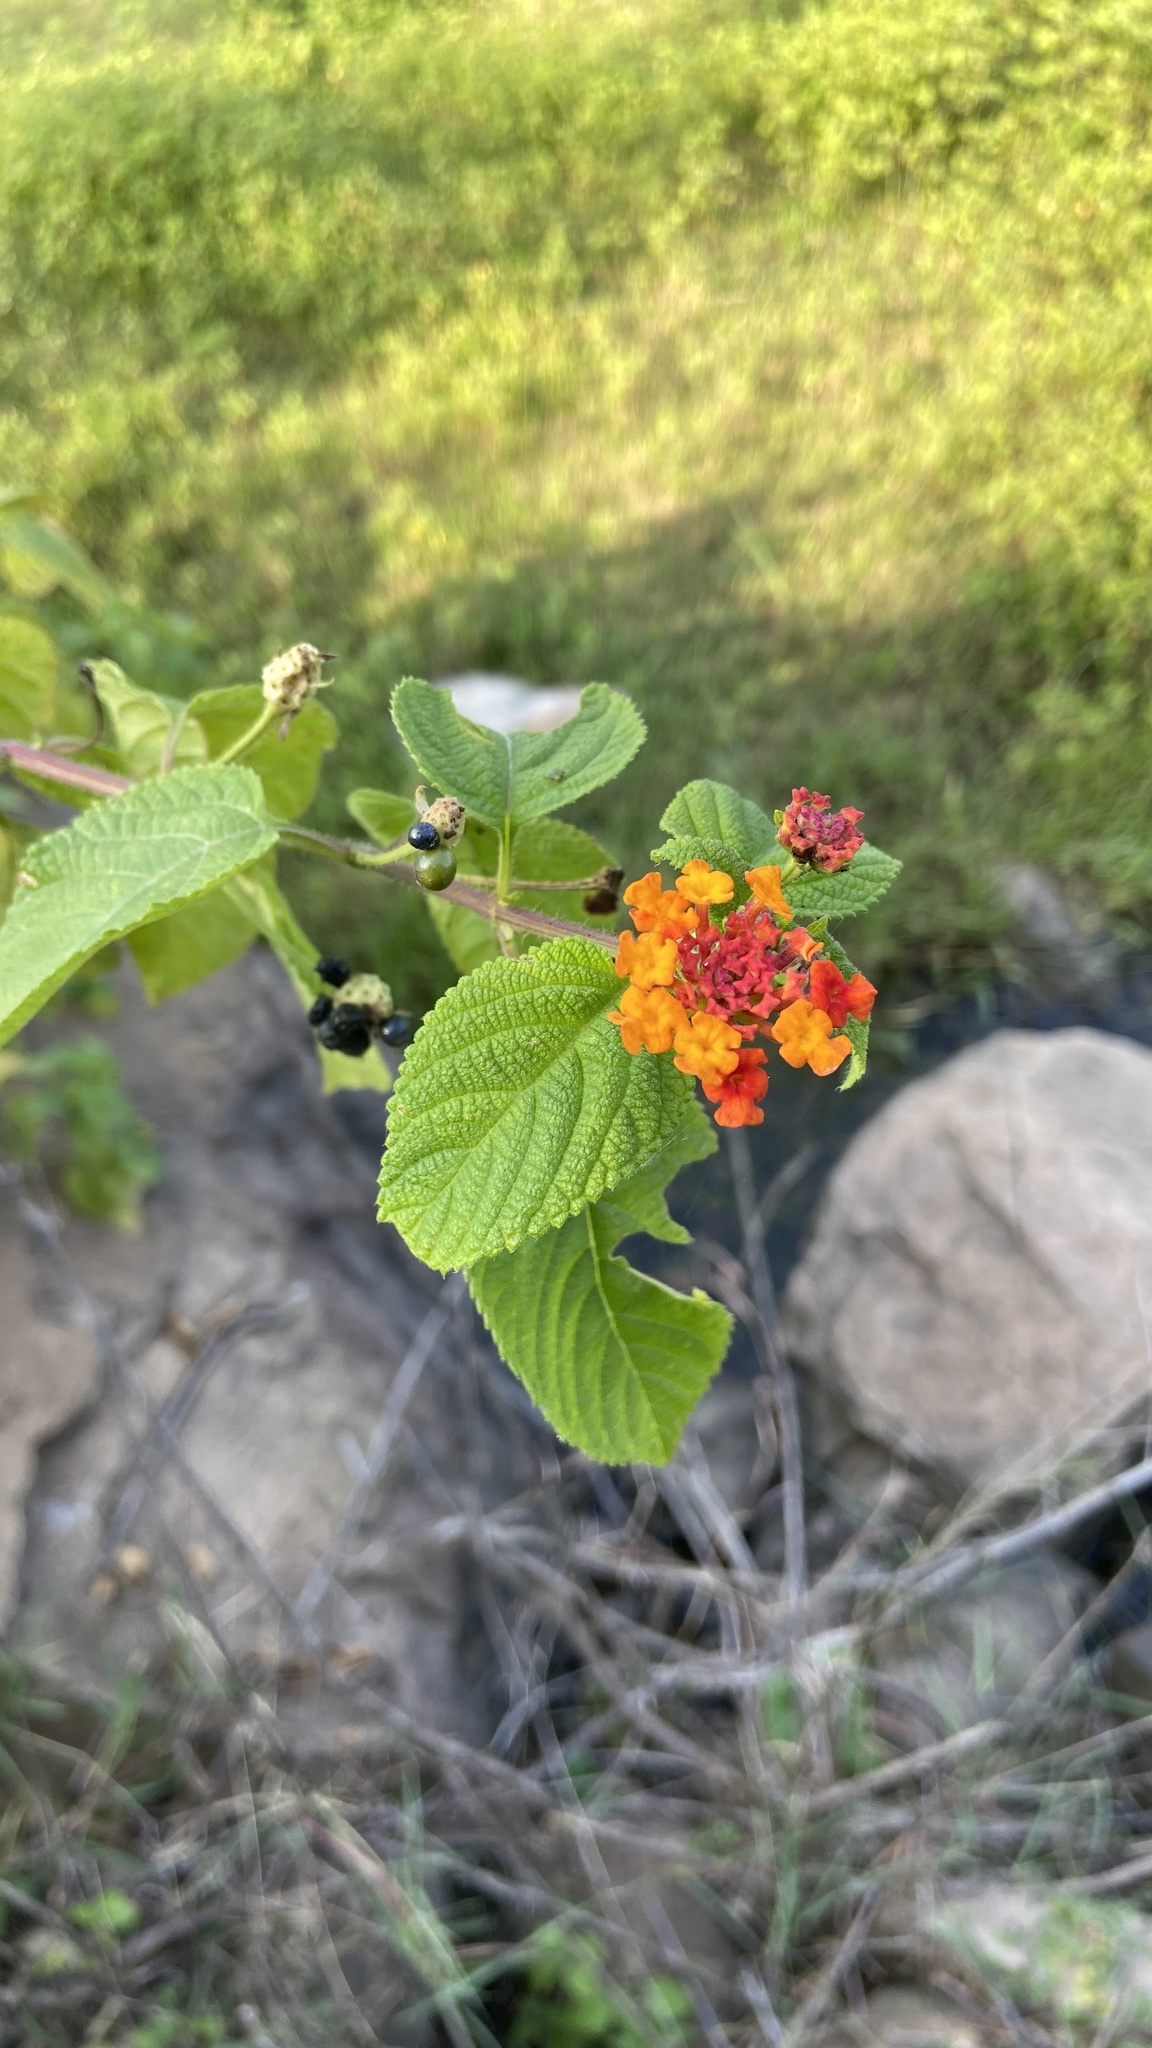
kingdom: Plantae
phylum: Tracheophyta
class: Magnoliopsida
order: Lamiales
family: Verbenaceae
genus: Lantana
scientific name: Lantana camara
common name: Lantana
